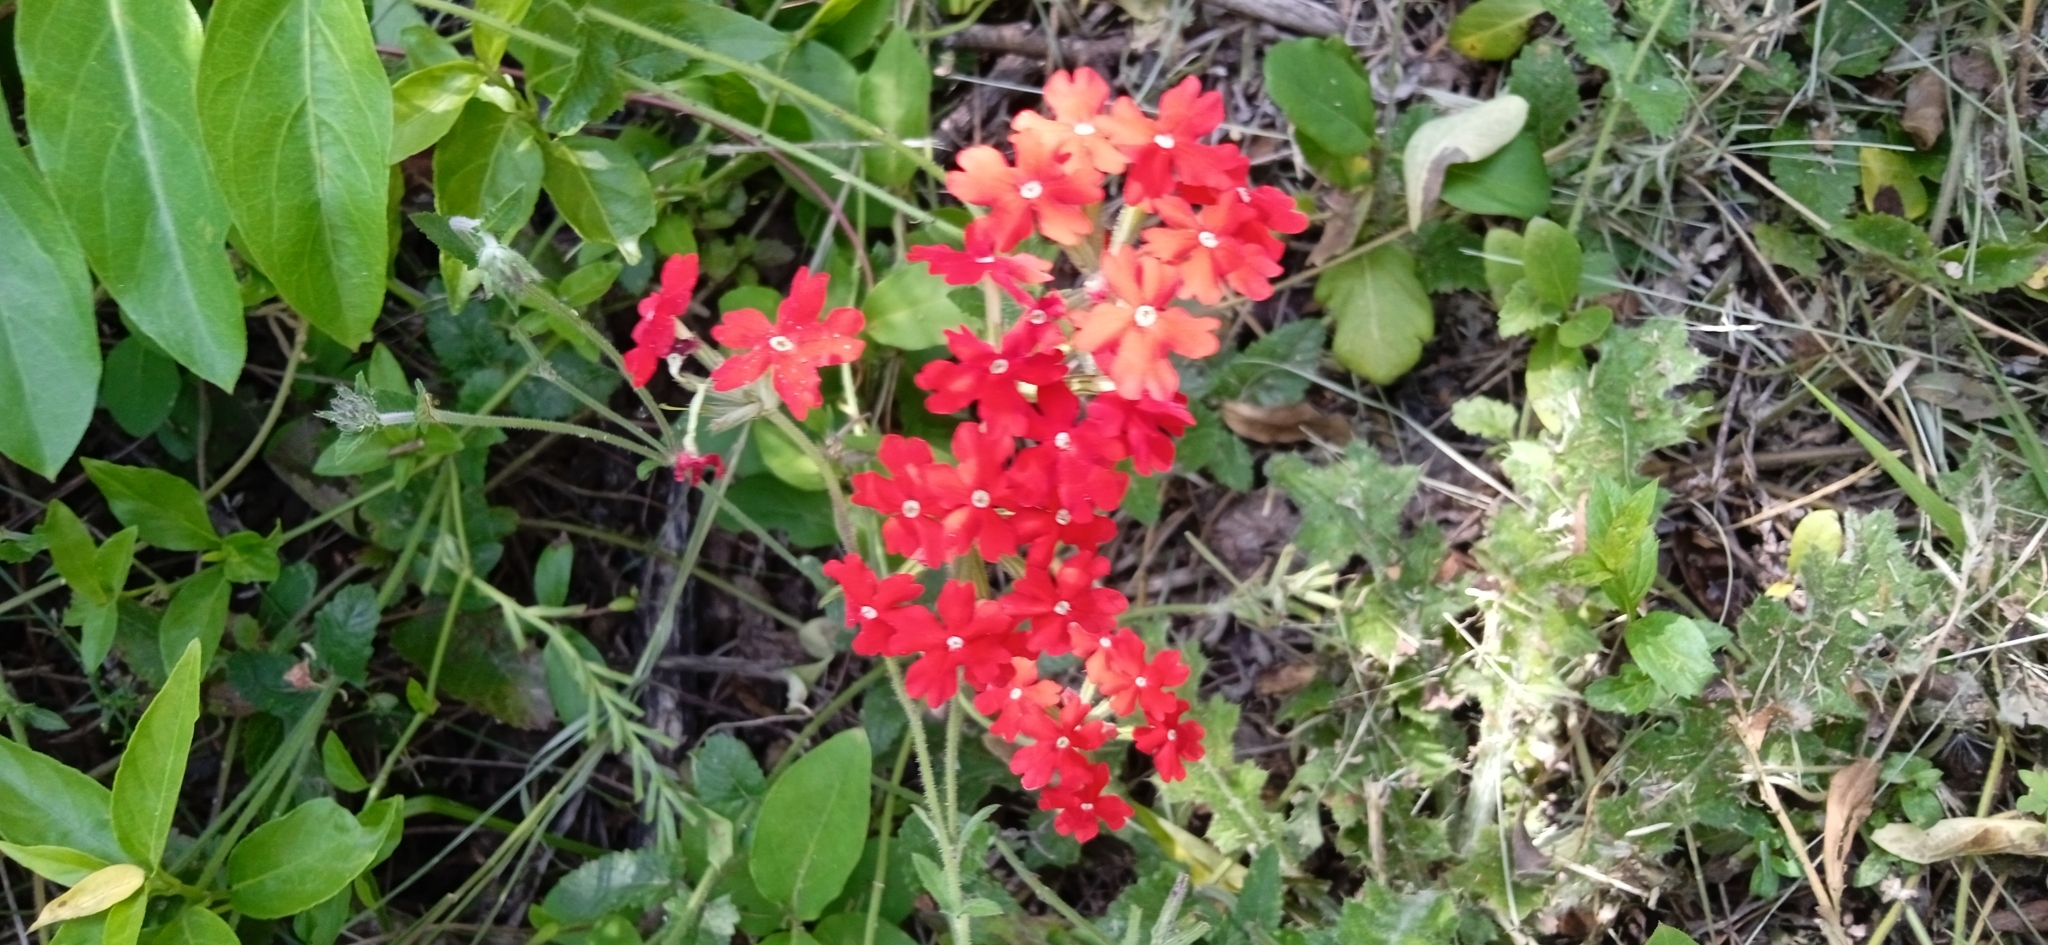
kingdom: Plantae
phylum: Tracheophyta
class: Magnoliopsida
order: Lamiales
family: Verbenaceae
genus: Verbena
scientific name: Verbena peruviana
